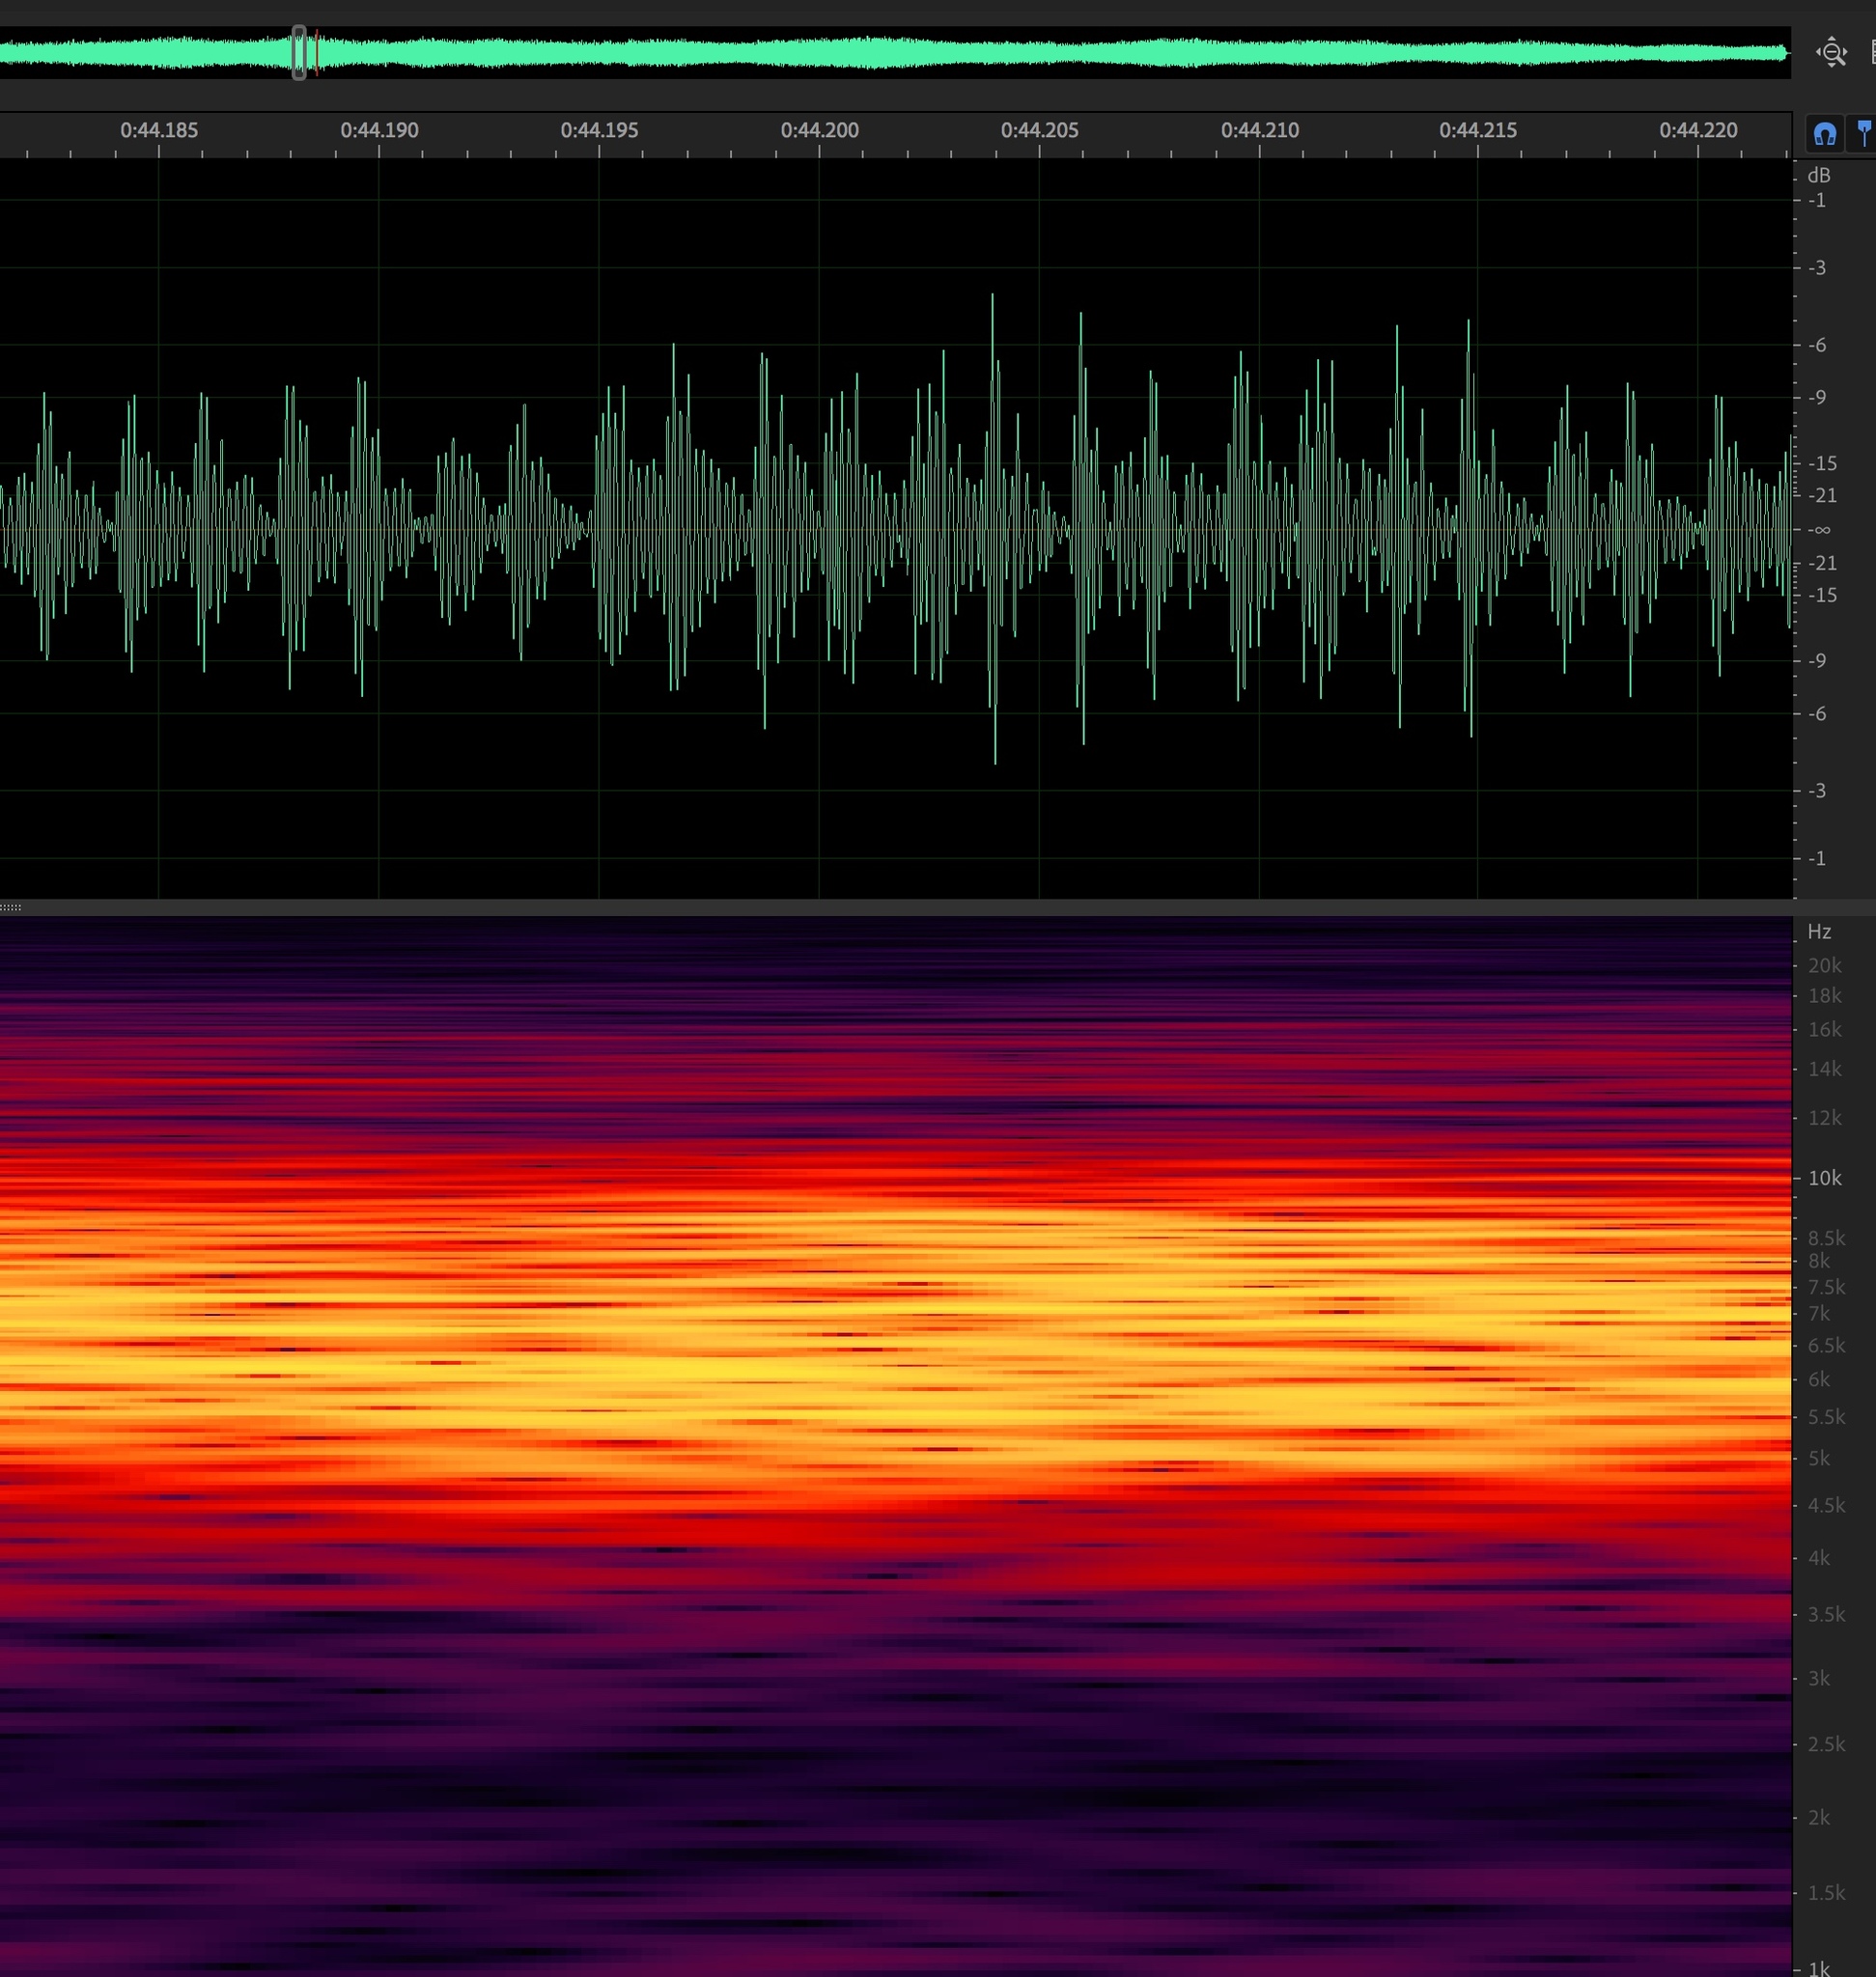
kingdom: Animalia
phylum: Arthropoda
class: Insecta
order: Hemiptera
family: Cicadidae
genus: Hadoa
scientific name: Hadoa duryi
